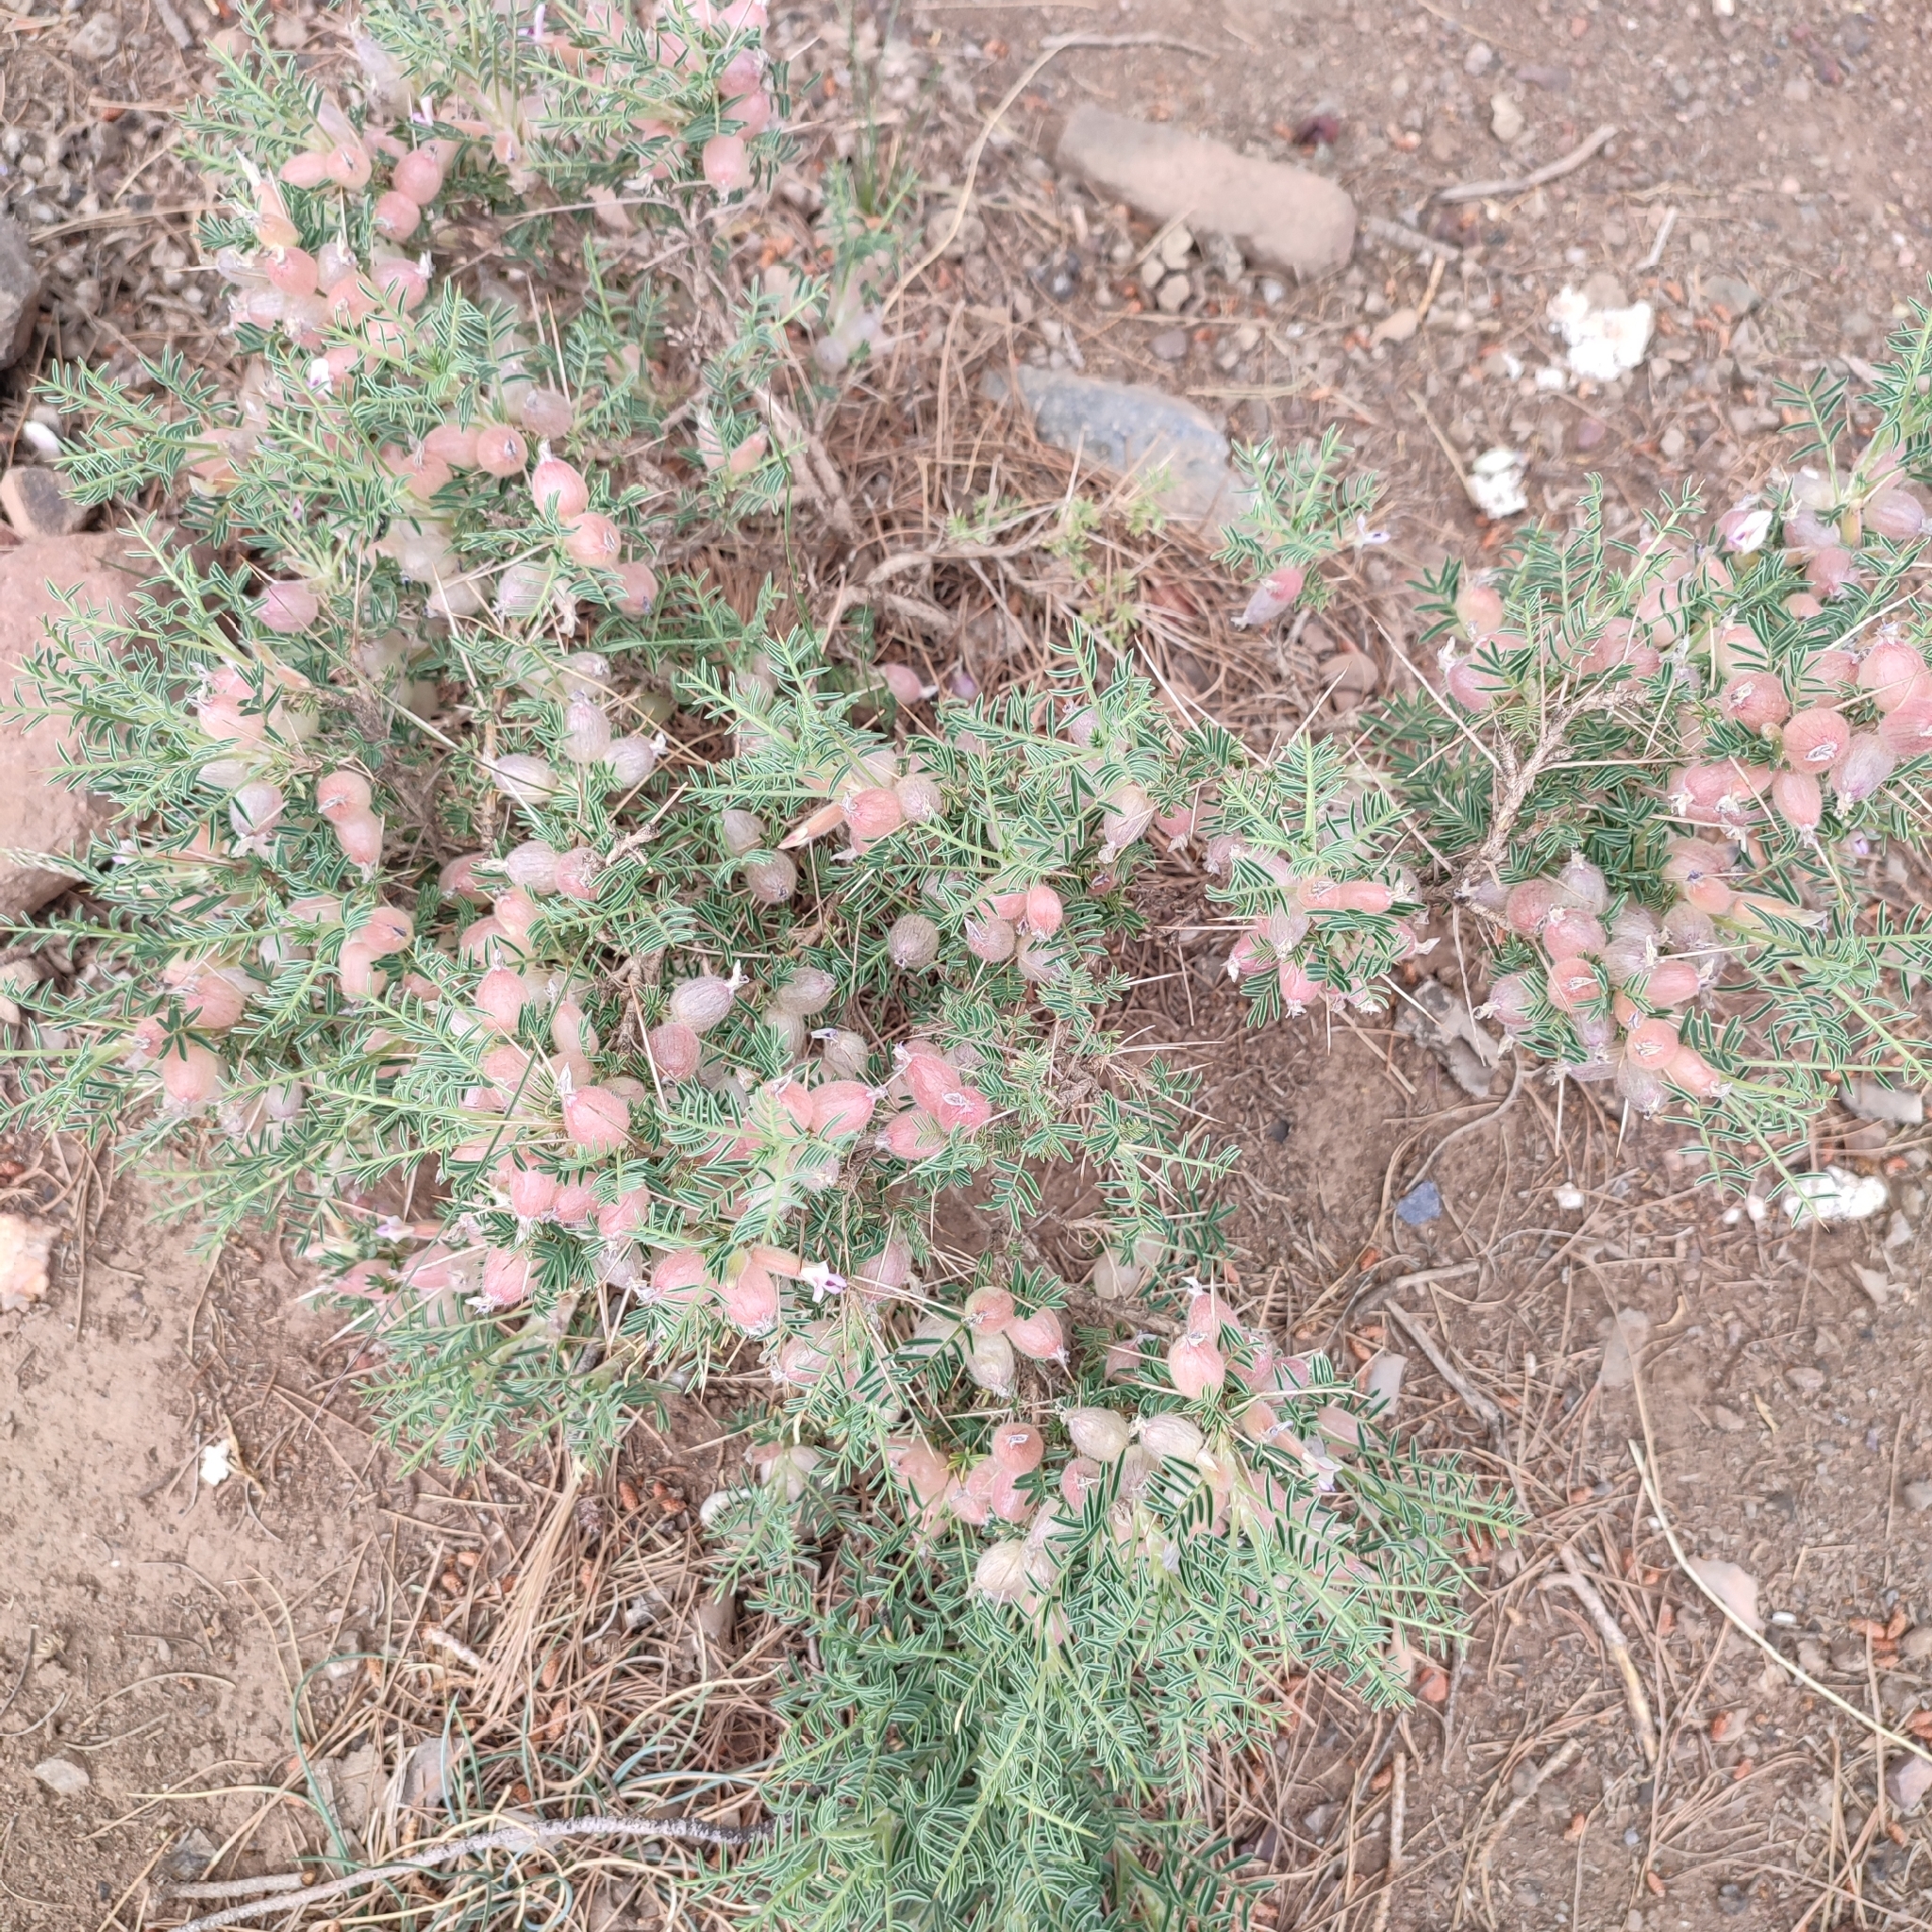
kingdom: Plantae
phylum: Tracheophyta
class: Magnoliopsida
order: Fabales
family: Fabaceae
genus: Astragalus
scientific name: Astragalus armatus
